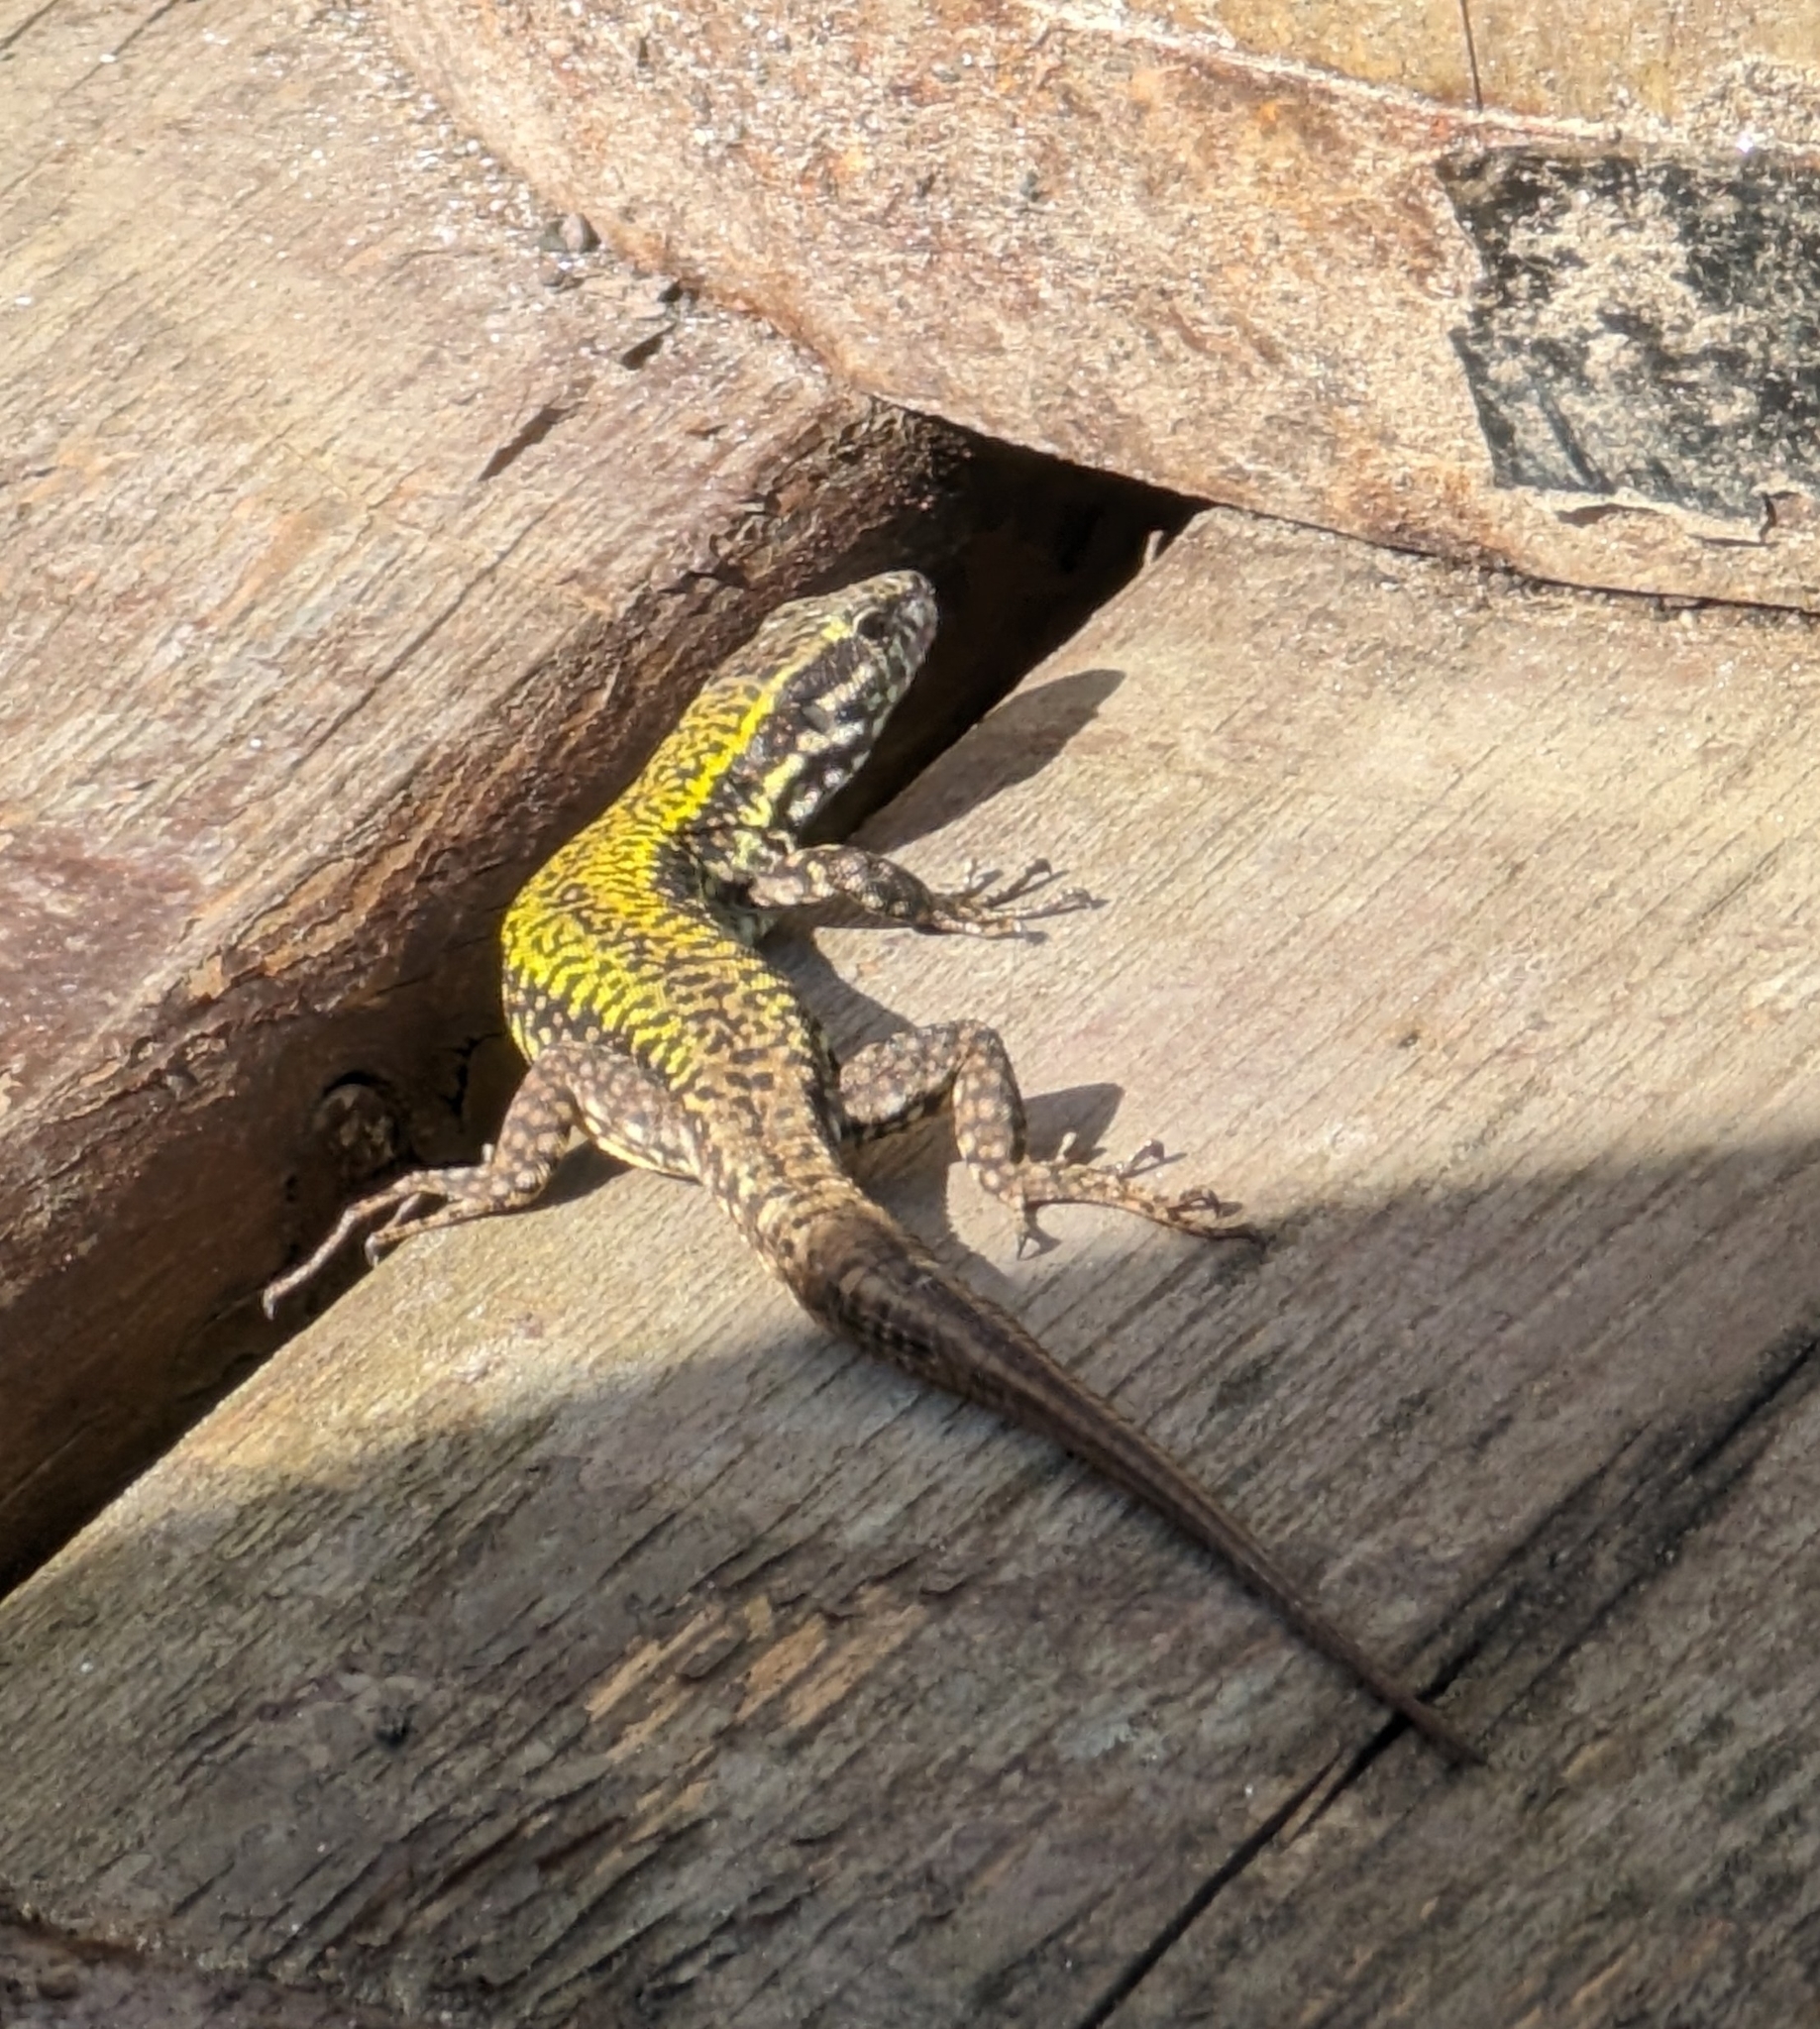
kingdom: Animalia
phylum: Chordata
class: Squamata
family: Lacertidae
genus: Podarcis
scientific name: Podarcis muralis
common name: Common wall lizard
